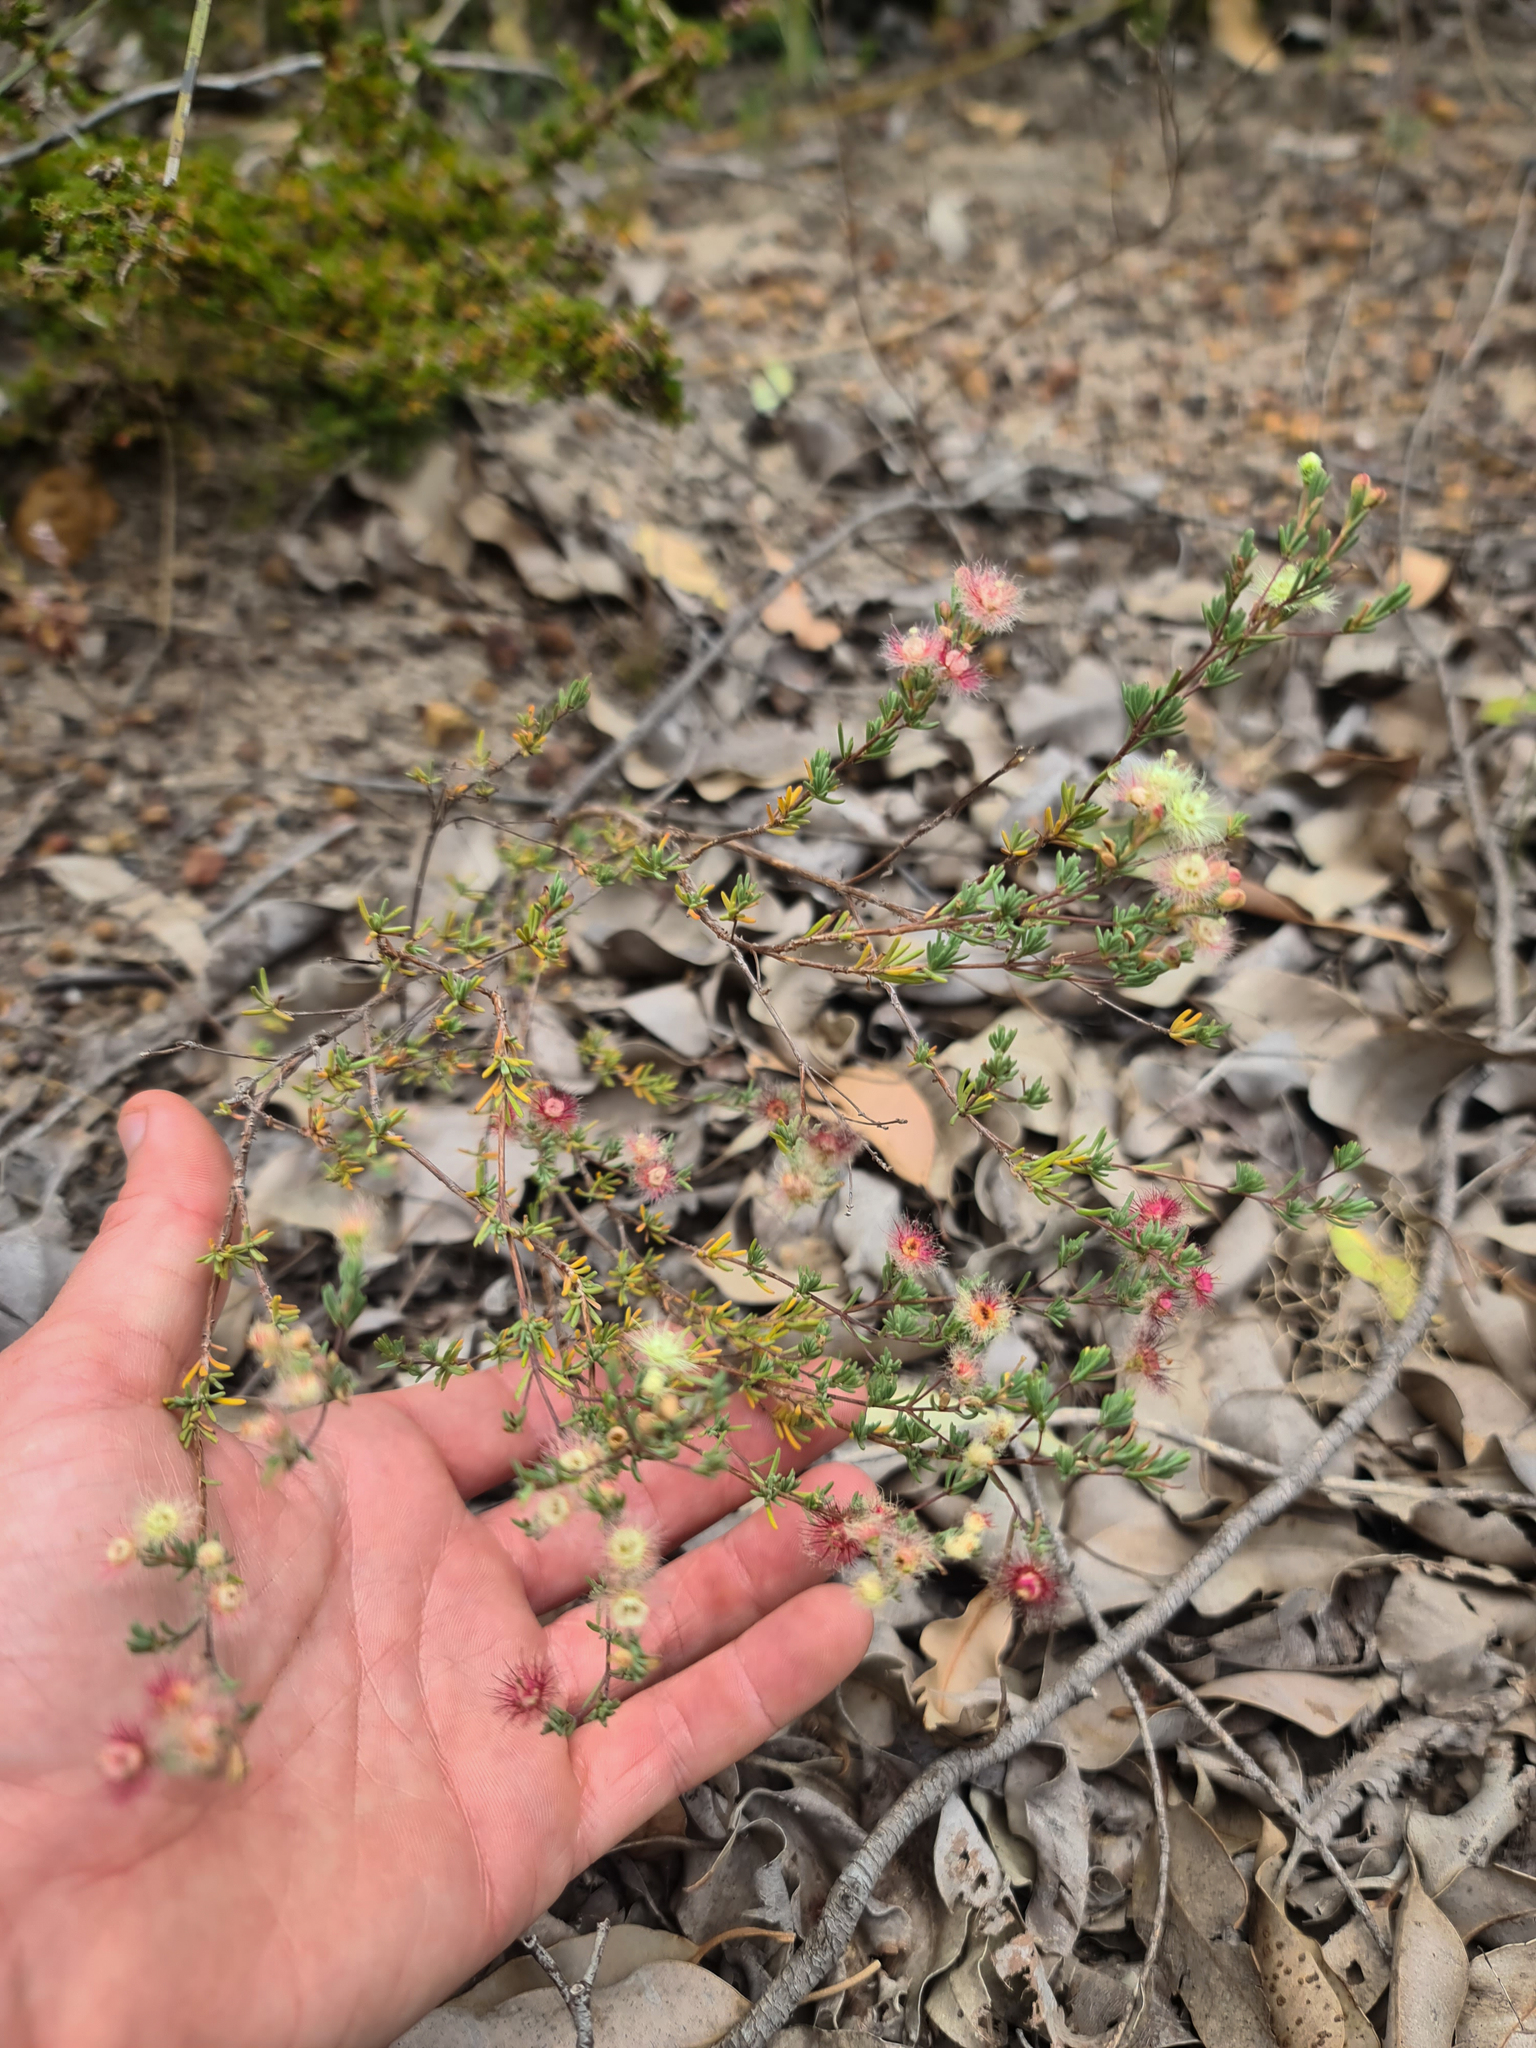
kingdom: Plantae
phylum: Tracheophyta
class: Magnoliopsida
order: Myrtales
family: Myrtaceae
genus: Verticordia
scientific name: Verticordia huegelii
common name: Variegate feather-flower
